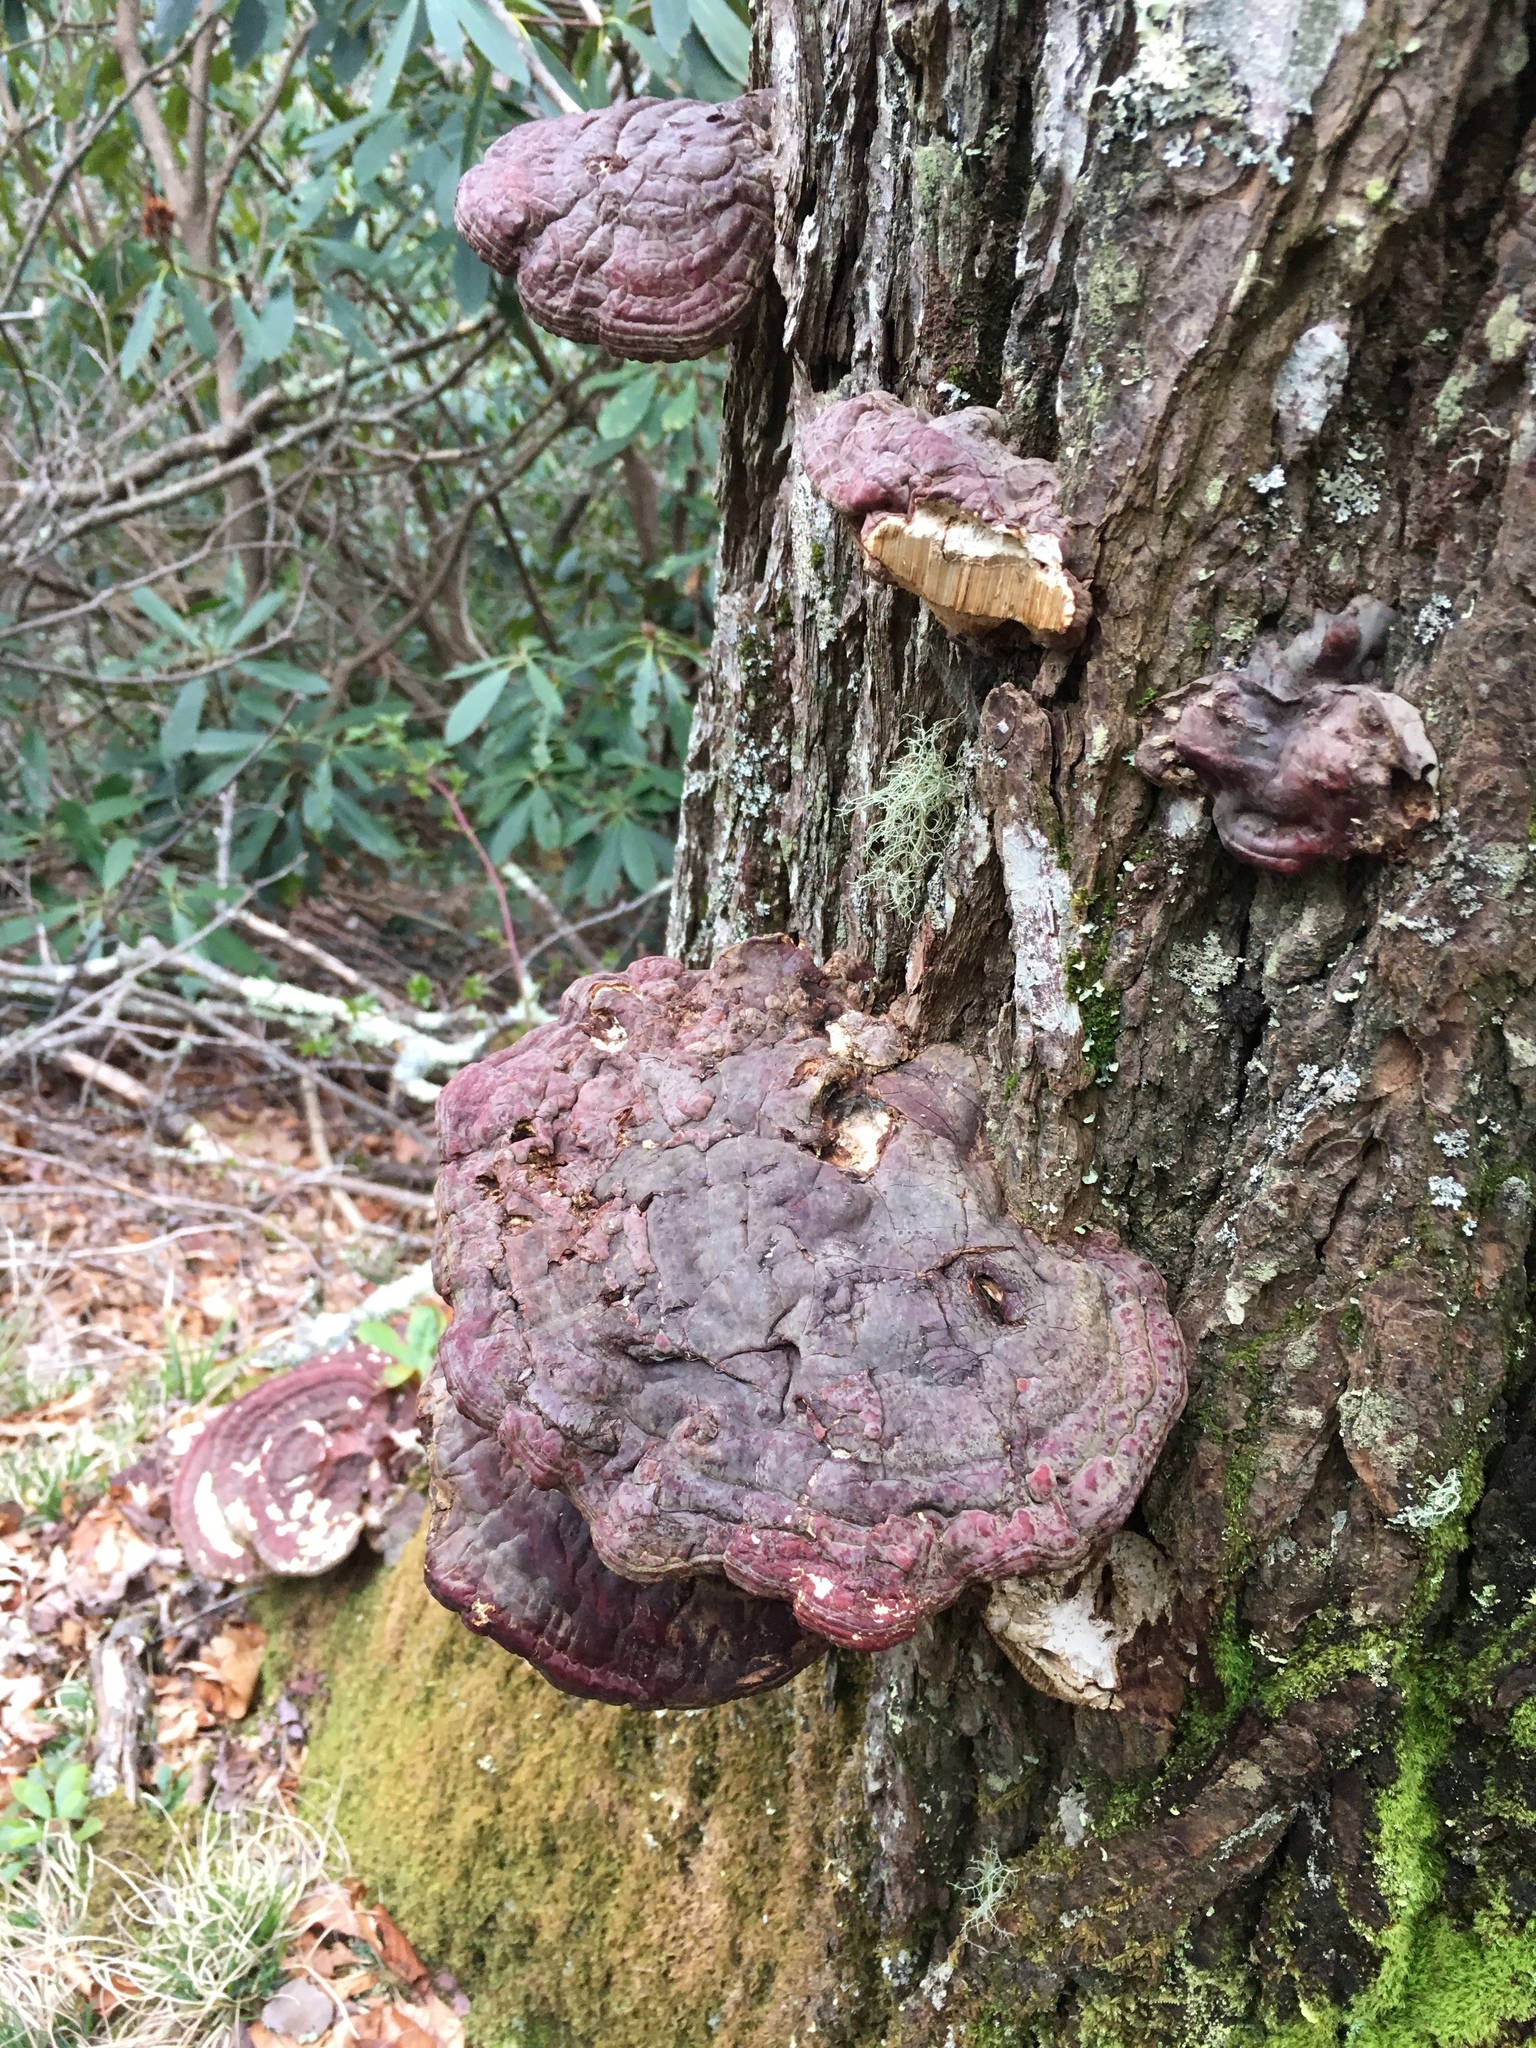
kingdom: Fungi
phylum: Basidiomycota
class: Agaricomycetes
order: Polyporales
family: Polyporaceae
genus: Ganoderma
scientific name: Ganoderma tsugae
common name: Hemlock varnish shelf
